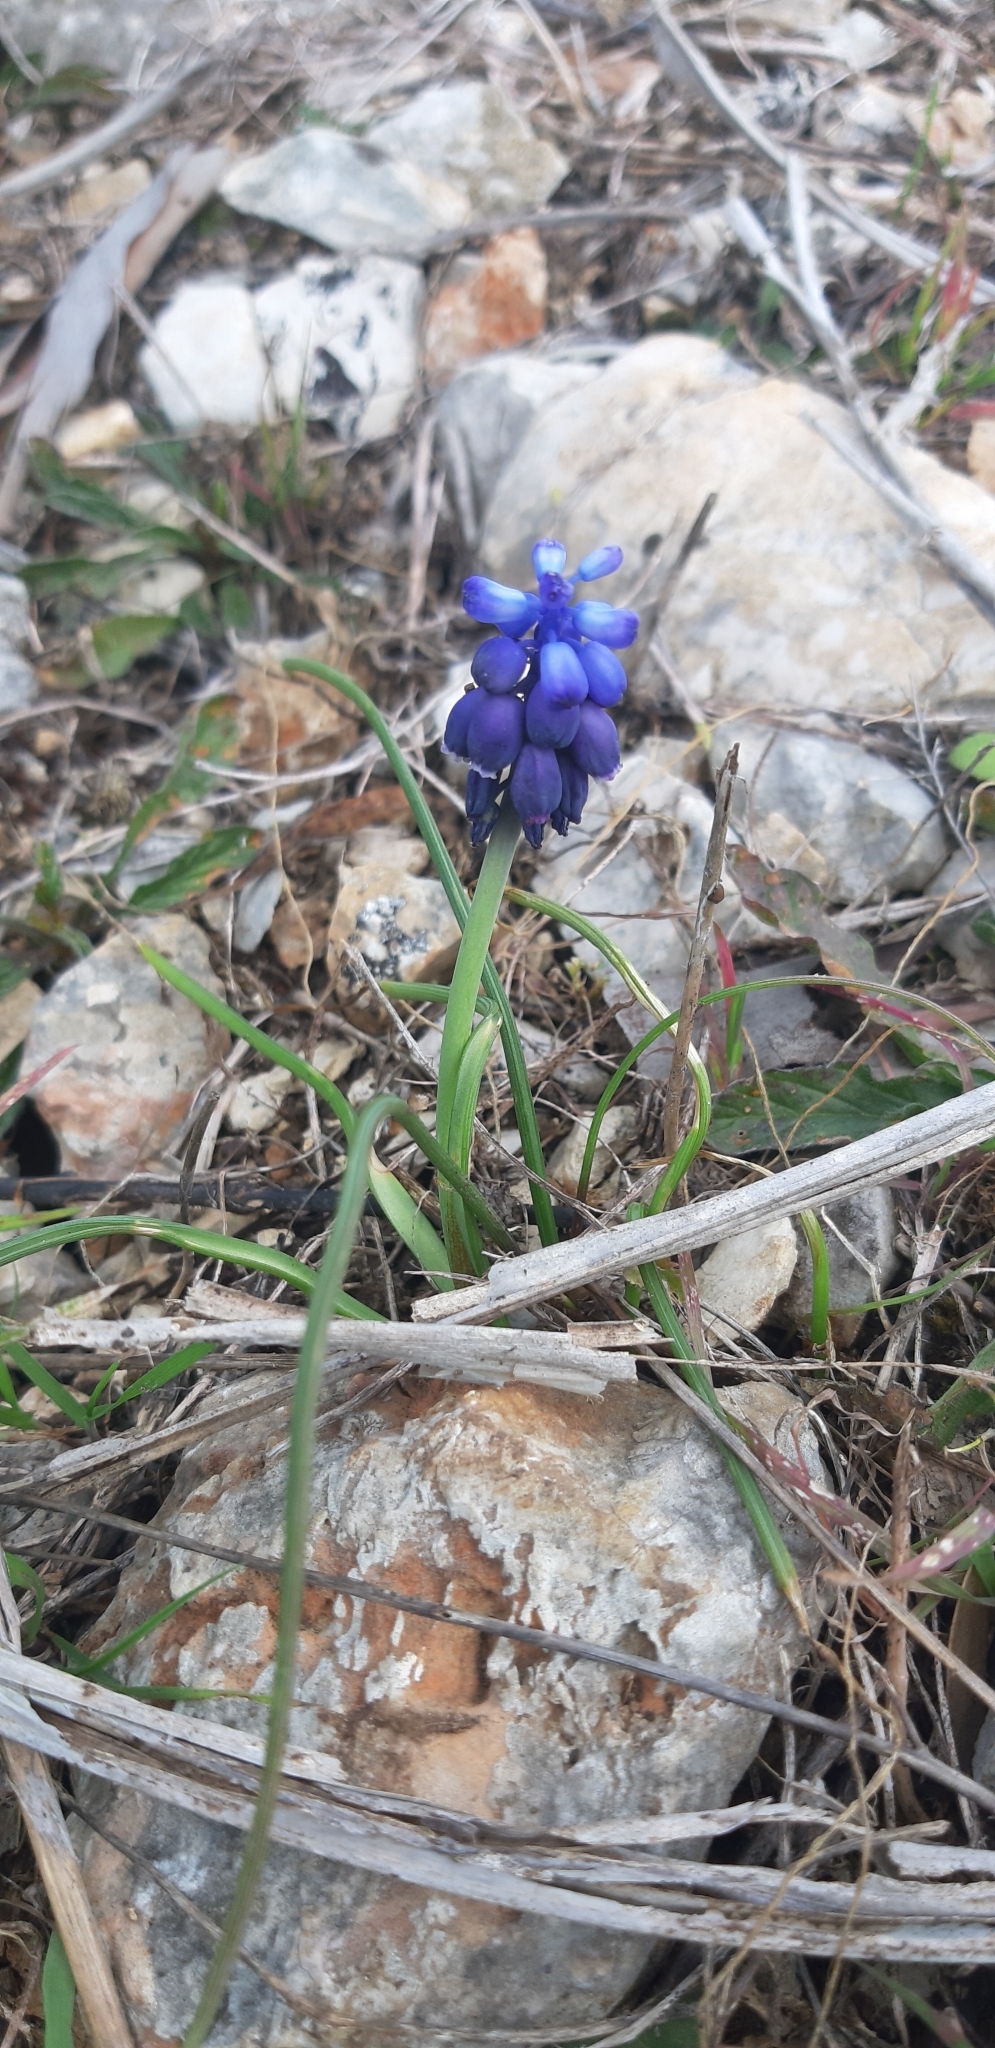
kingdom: Plantae
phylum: Tracheophyta
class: Liliopsida
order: Asparagales
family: Asparagaceae
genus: Muscari
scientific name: Muscari neglectum
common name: Grape-hyacinth
